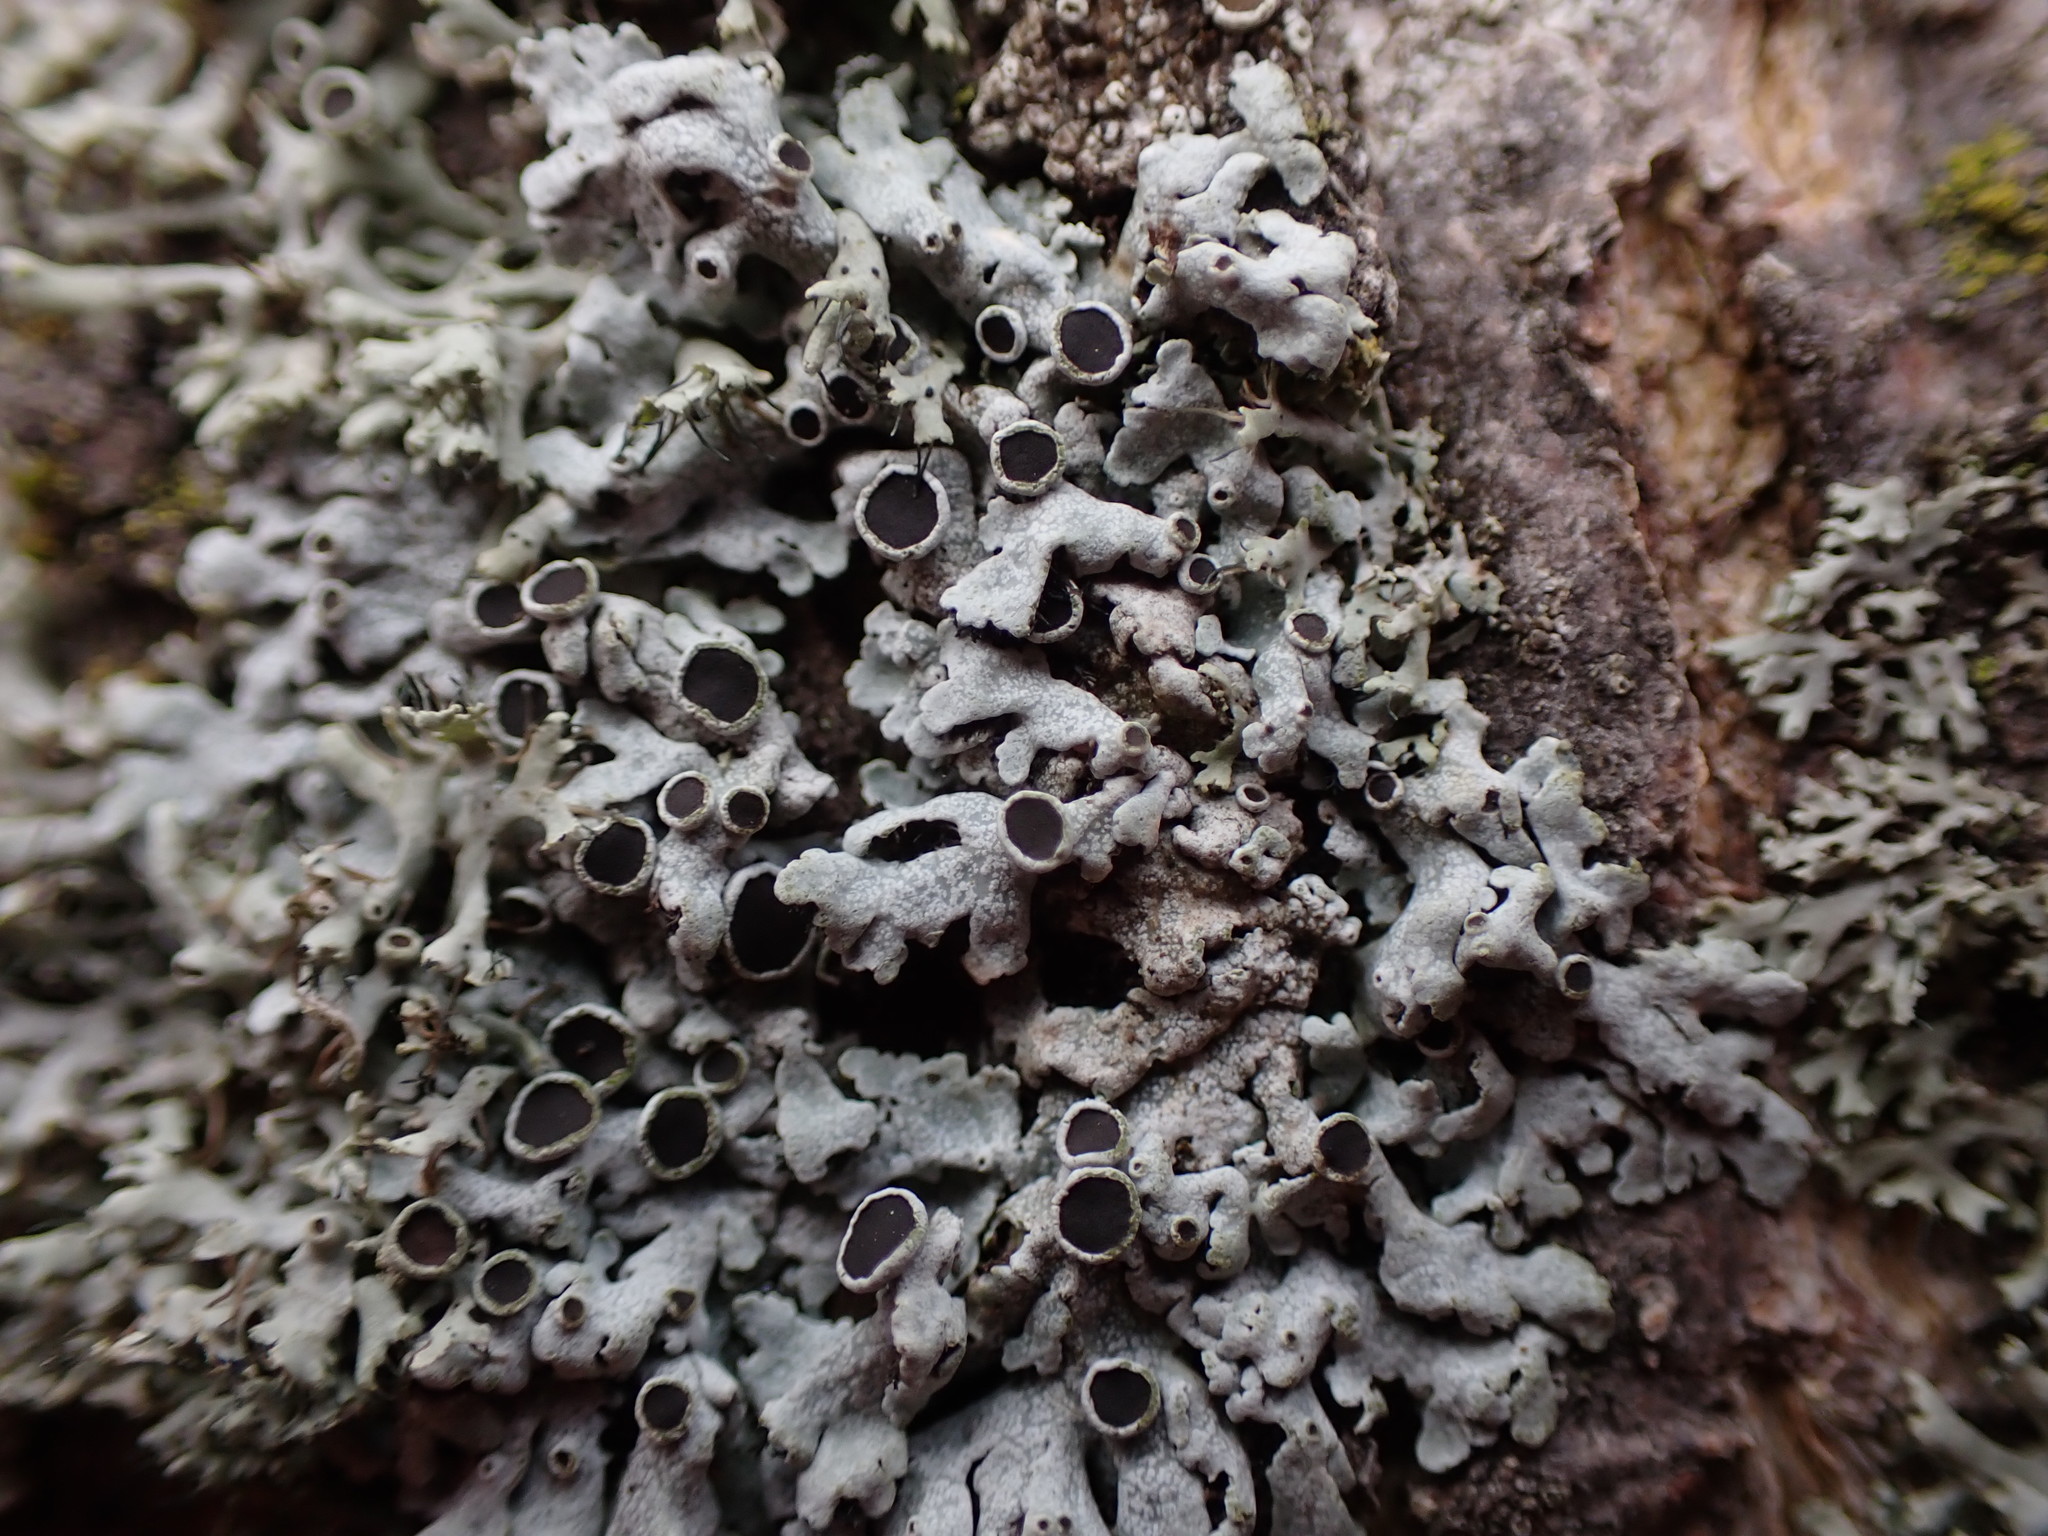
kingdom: Fungi
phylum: Ascomycota
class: Lecanoromycetes
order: Caliciales
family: Physciaceae
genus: Physcia
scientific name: Physcia biziana
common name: Frosted rosette lichen
